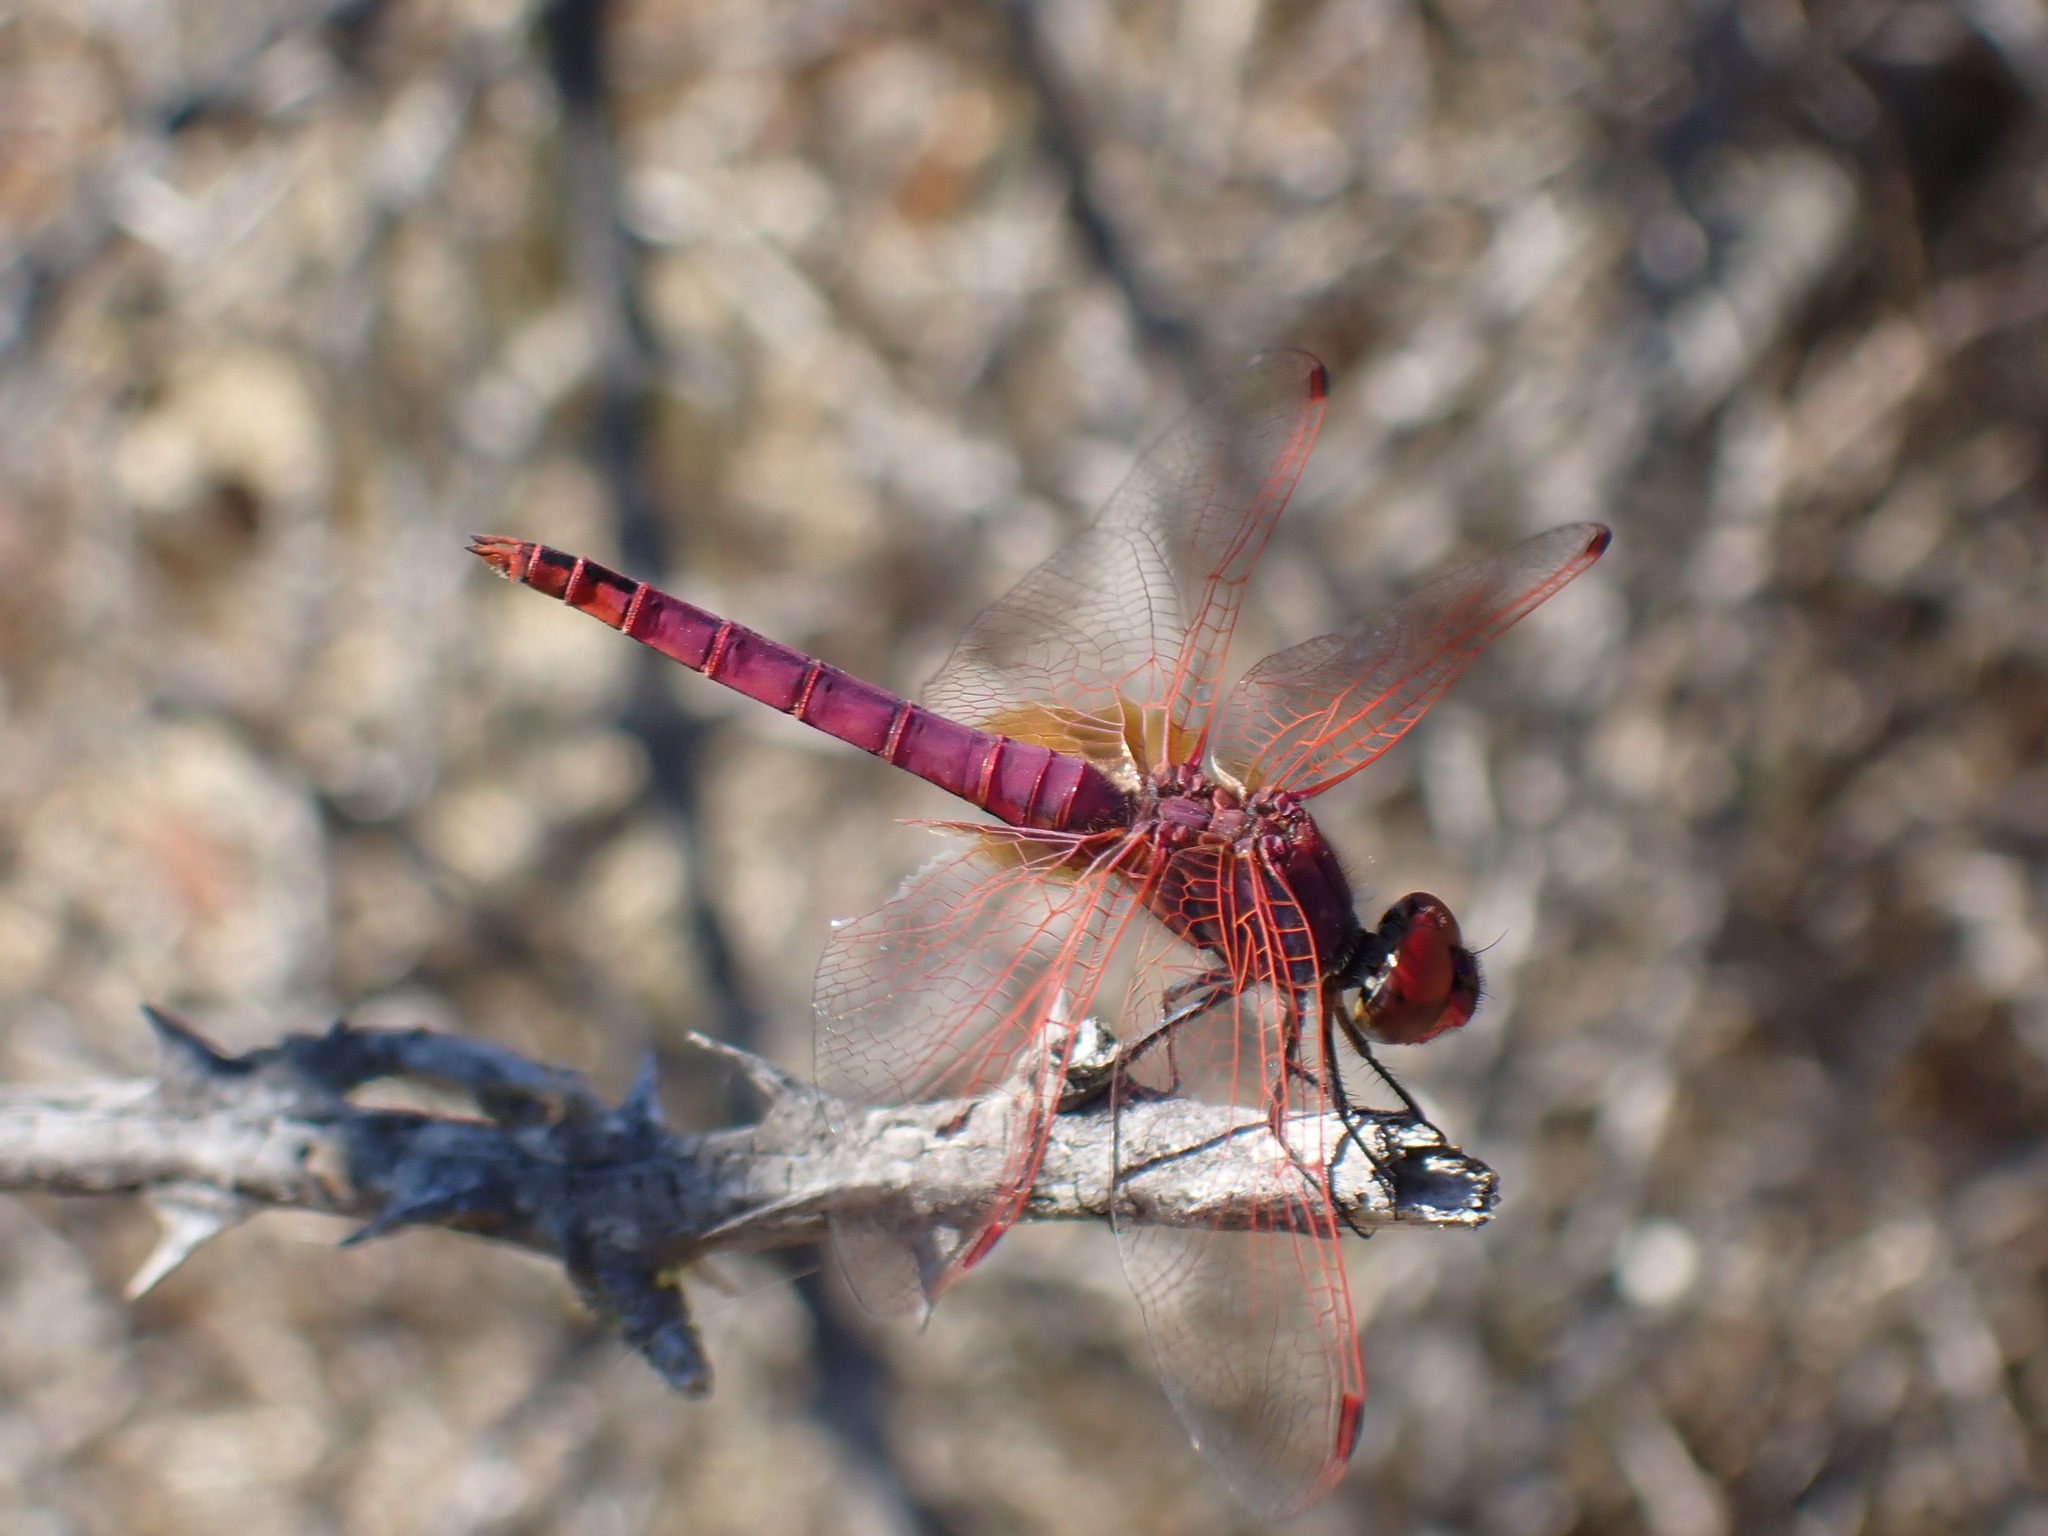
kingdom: Animalia
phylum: Arthropoda
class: Insecta
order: Odonata
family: Libellulidae
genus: Trithemis
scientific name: Trithemis annulata
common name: Violet dropwing
